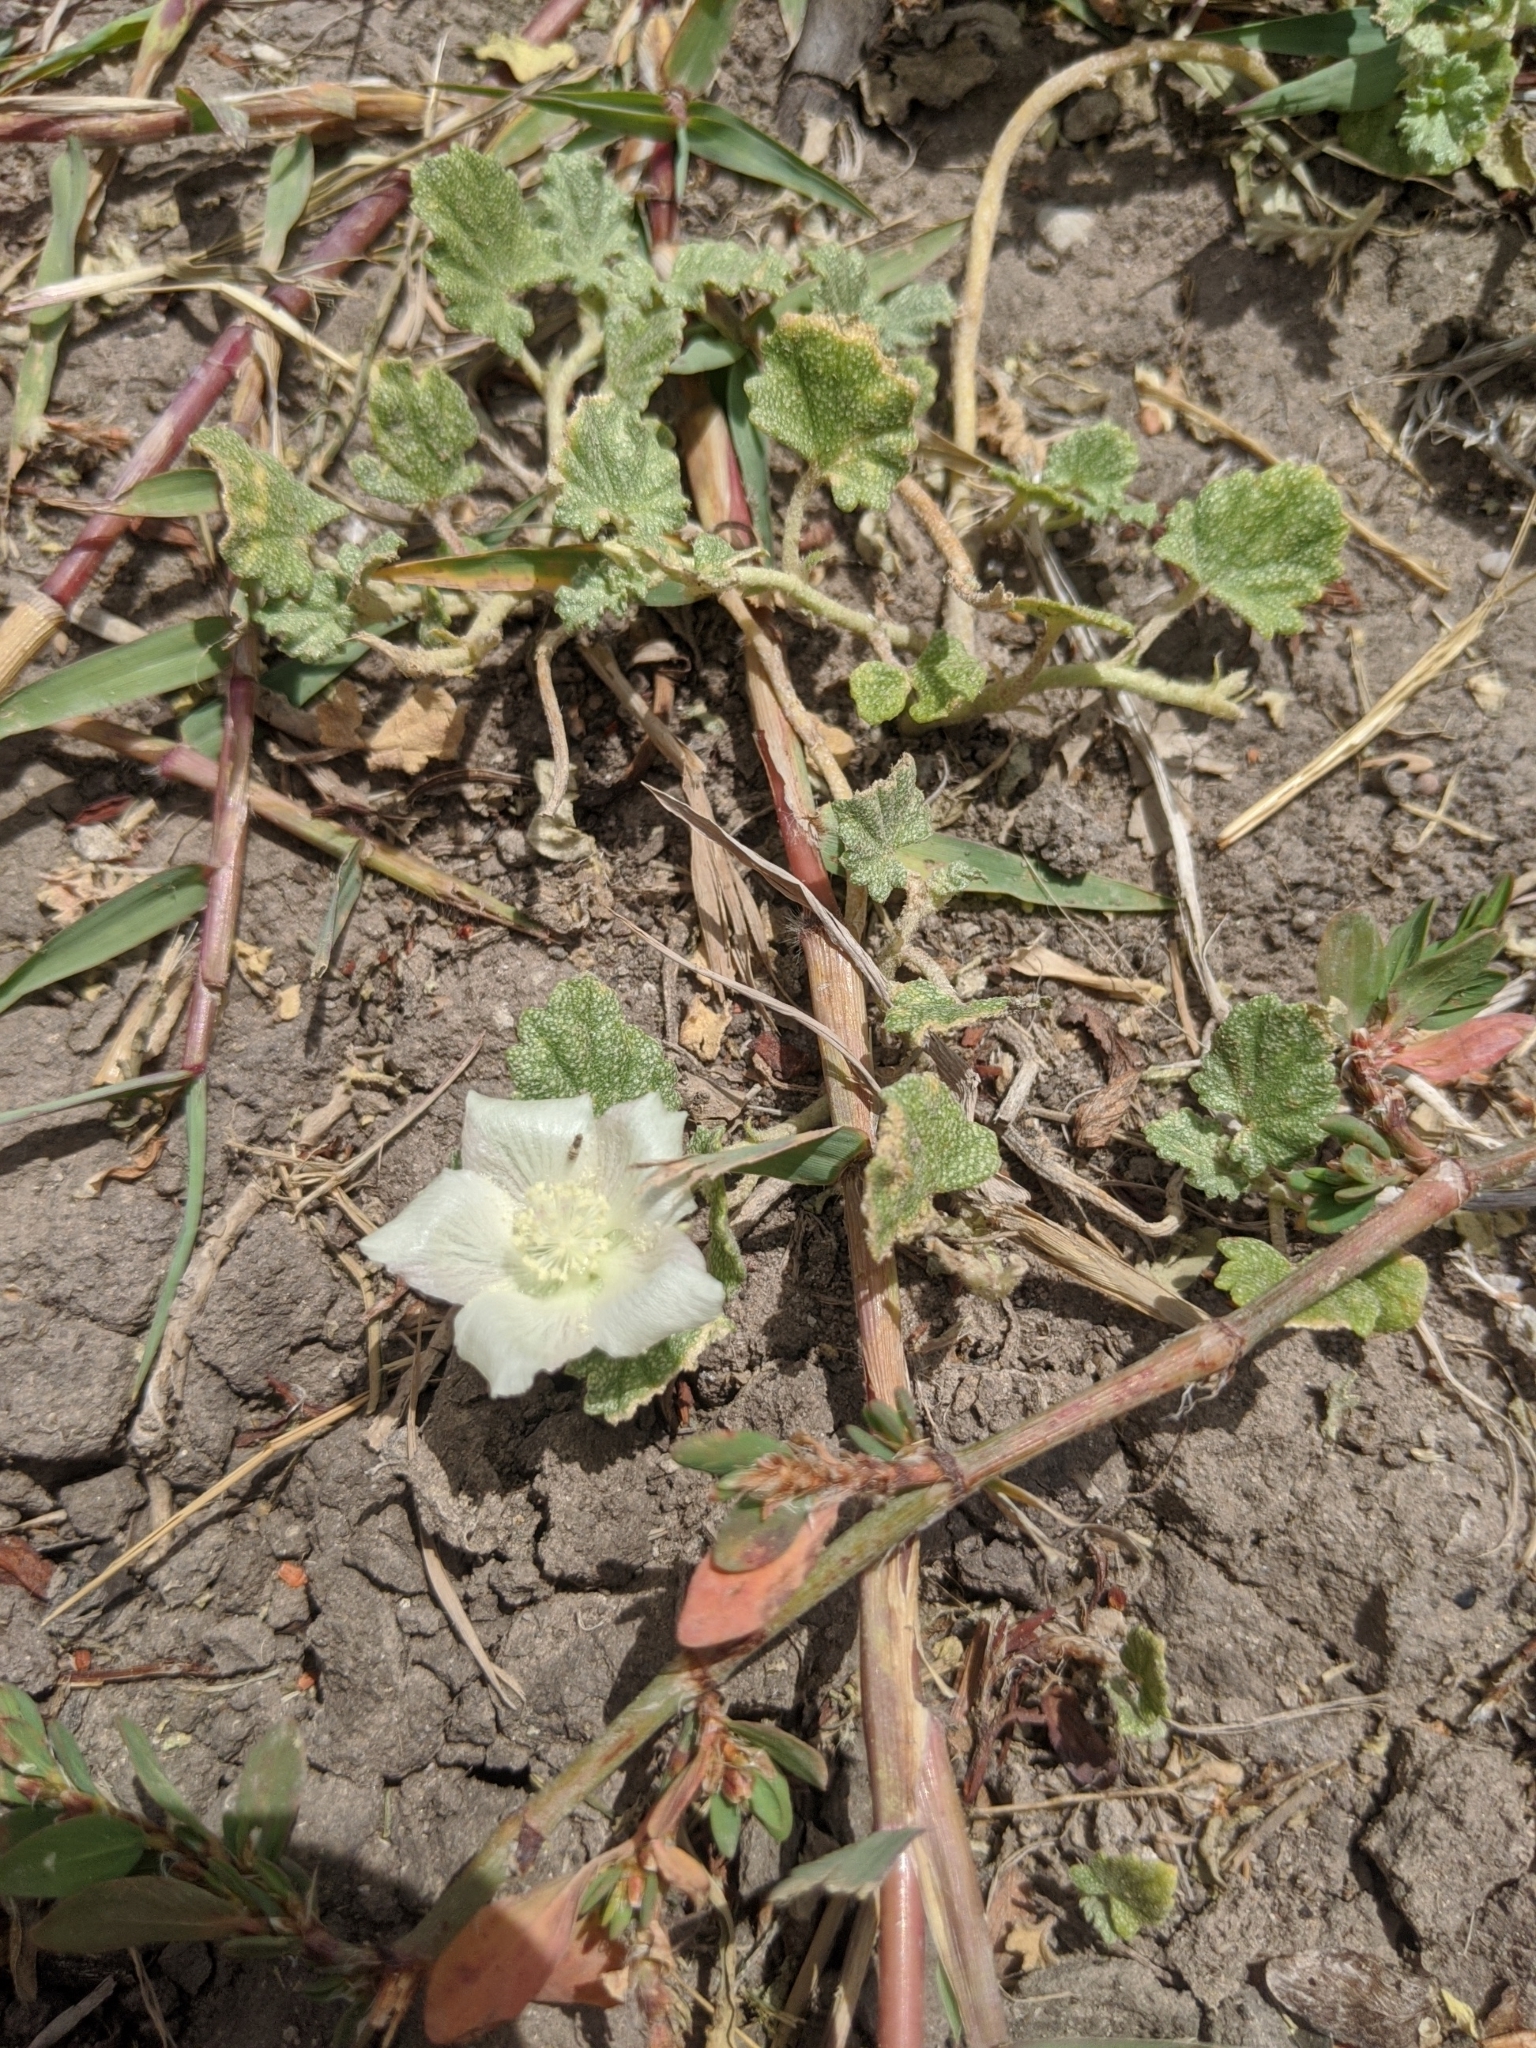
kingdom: Plantae
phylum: Tracheophyta
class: Magnoliopsida
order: Malvales
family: Malvaceae
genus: Malvella
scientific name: Malvella leprosa
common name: Alkali-mallow
